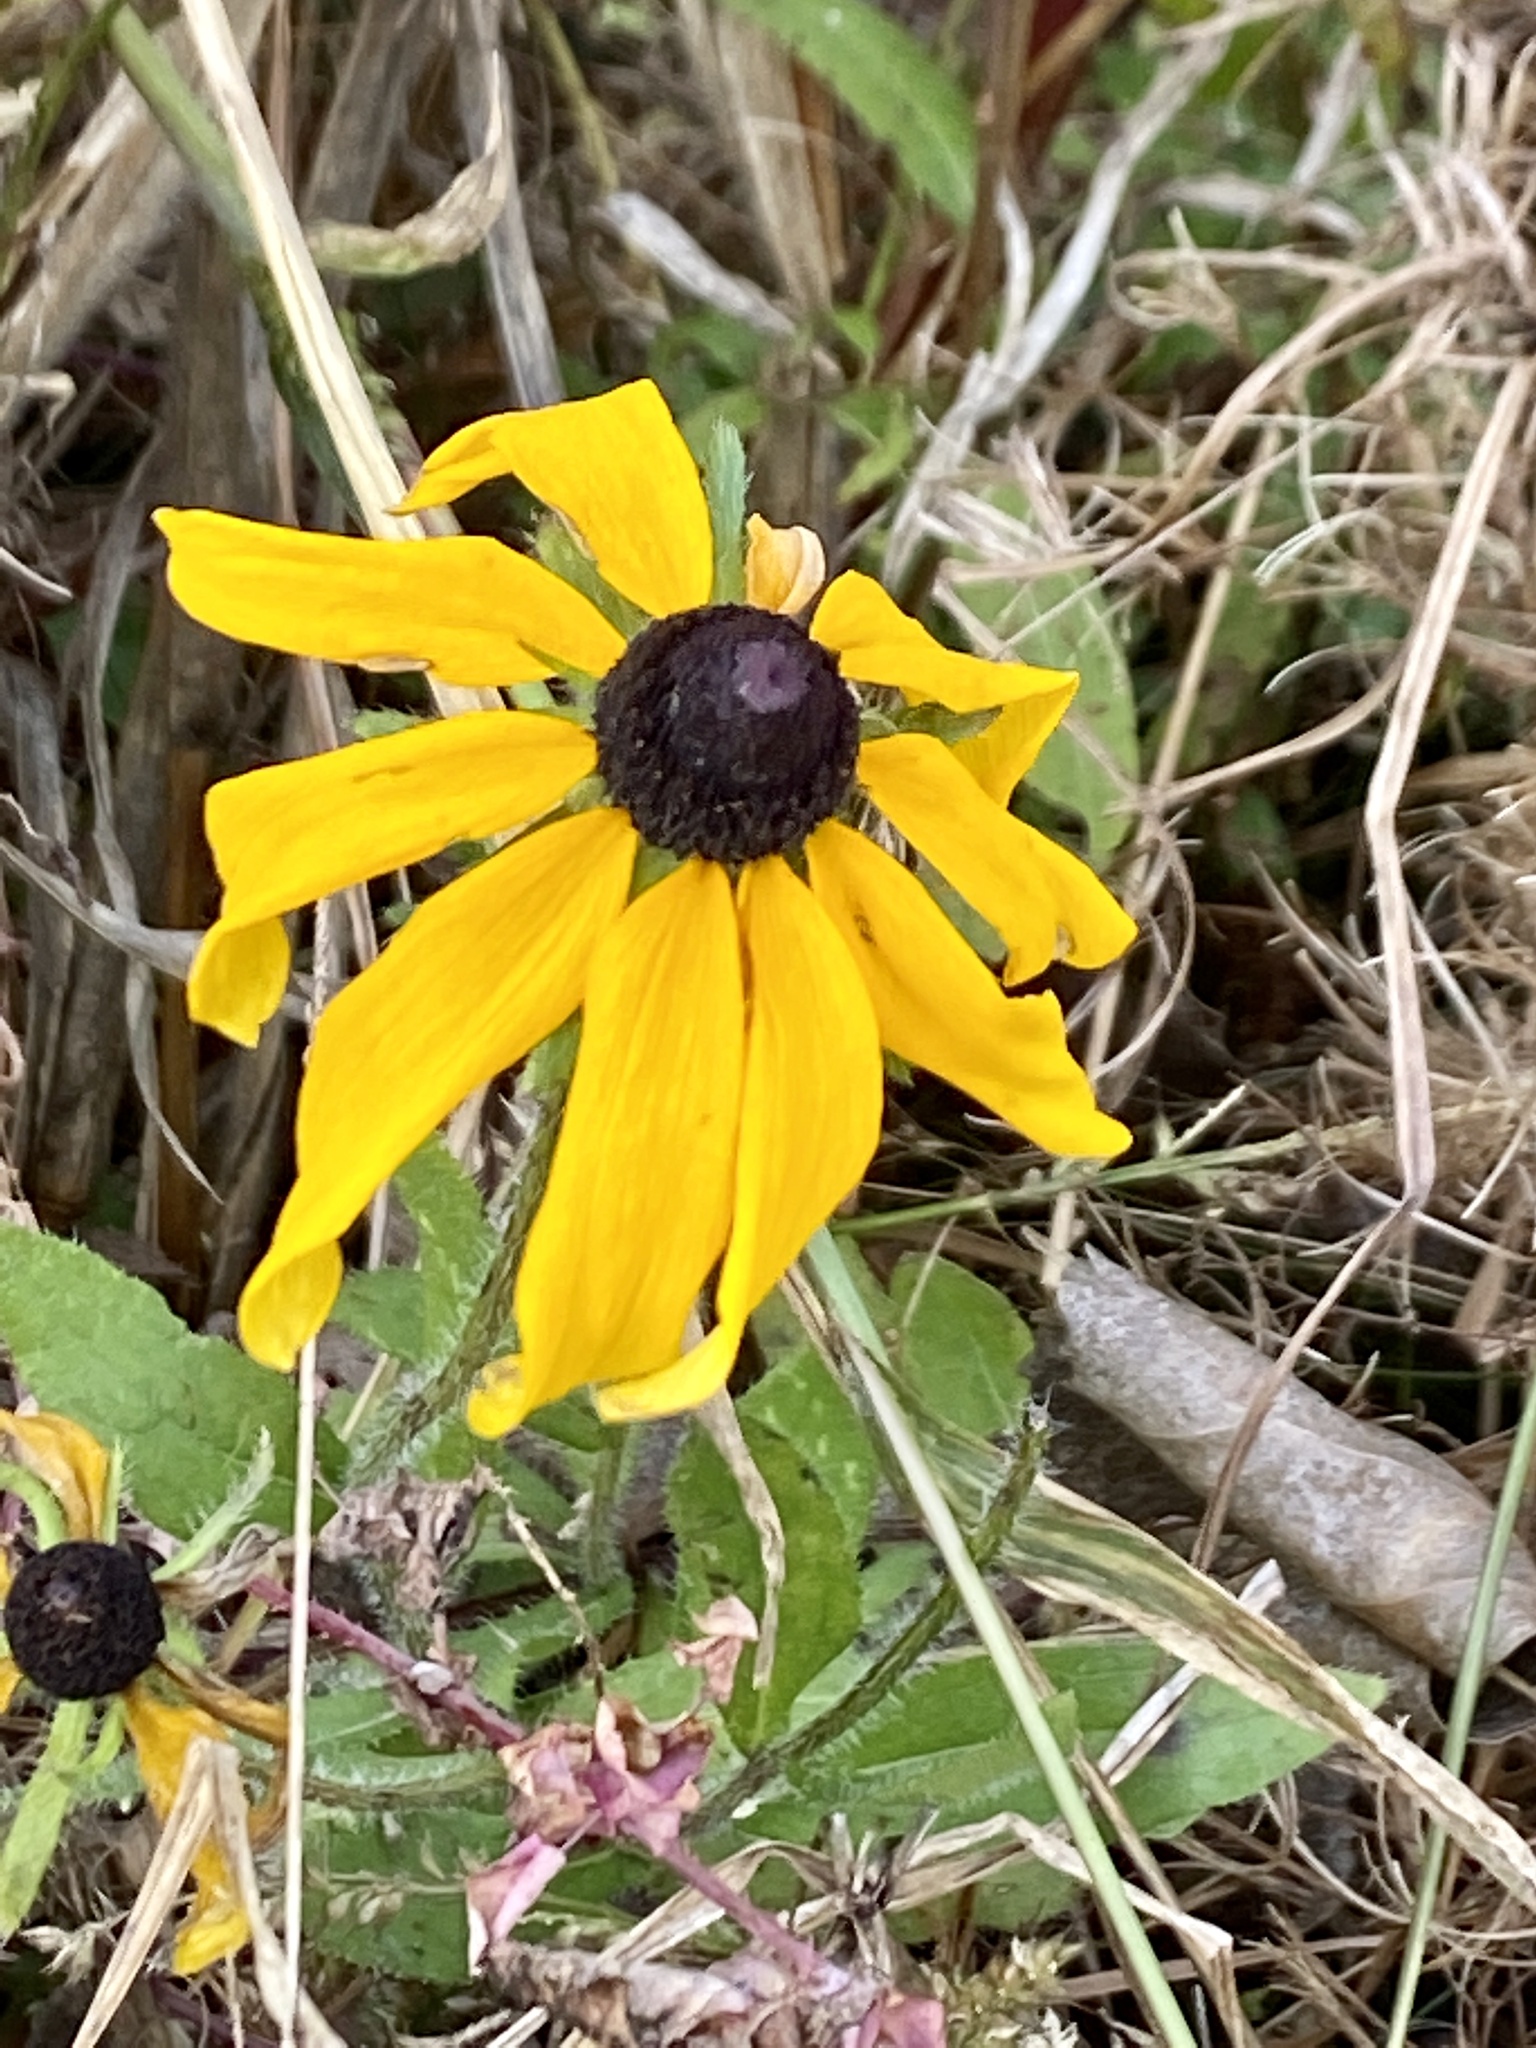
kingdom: Plantae
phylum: Tracheophyta
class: Magnoliopsida
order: Asterales
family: Asteraceae
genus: Rudbeckia
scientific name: Rudbeckia hirta
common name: Black-eyed-susan
